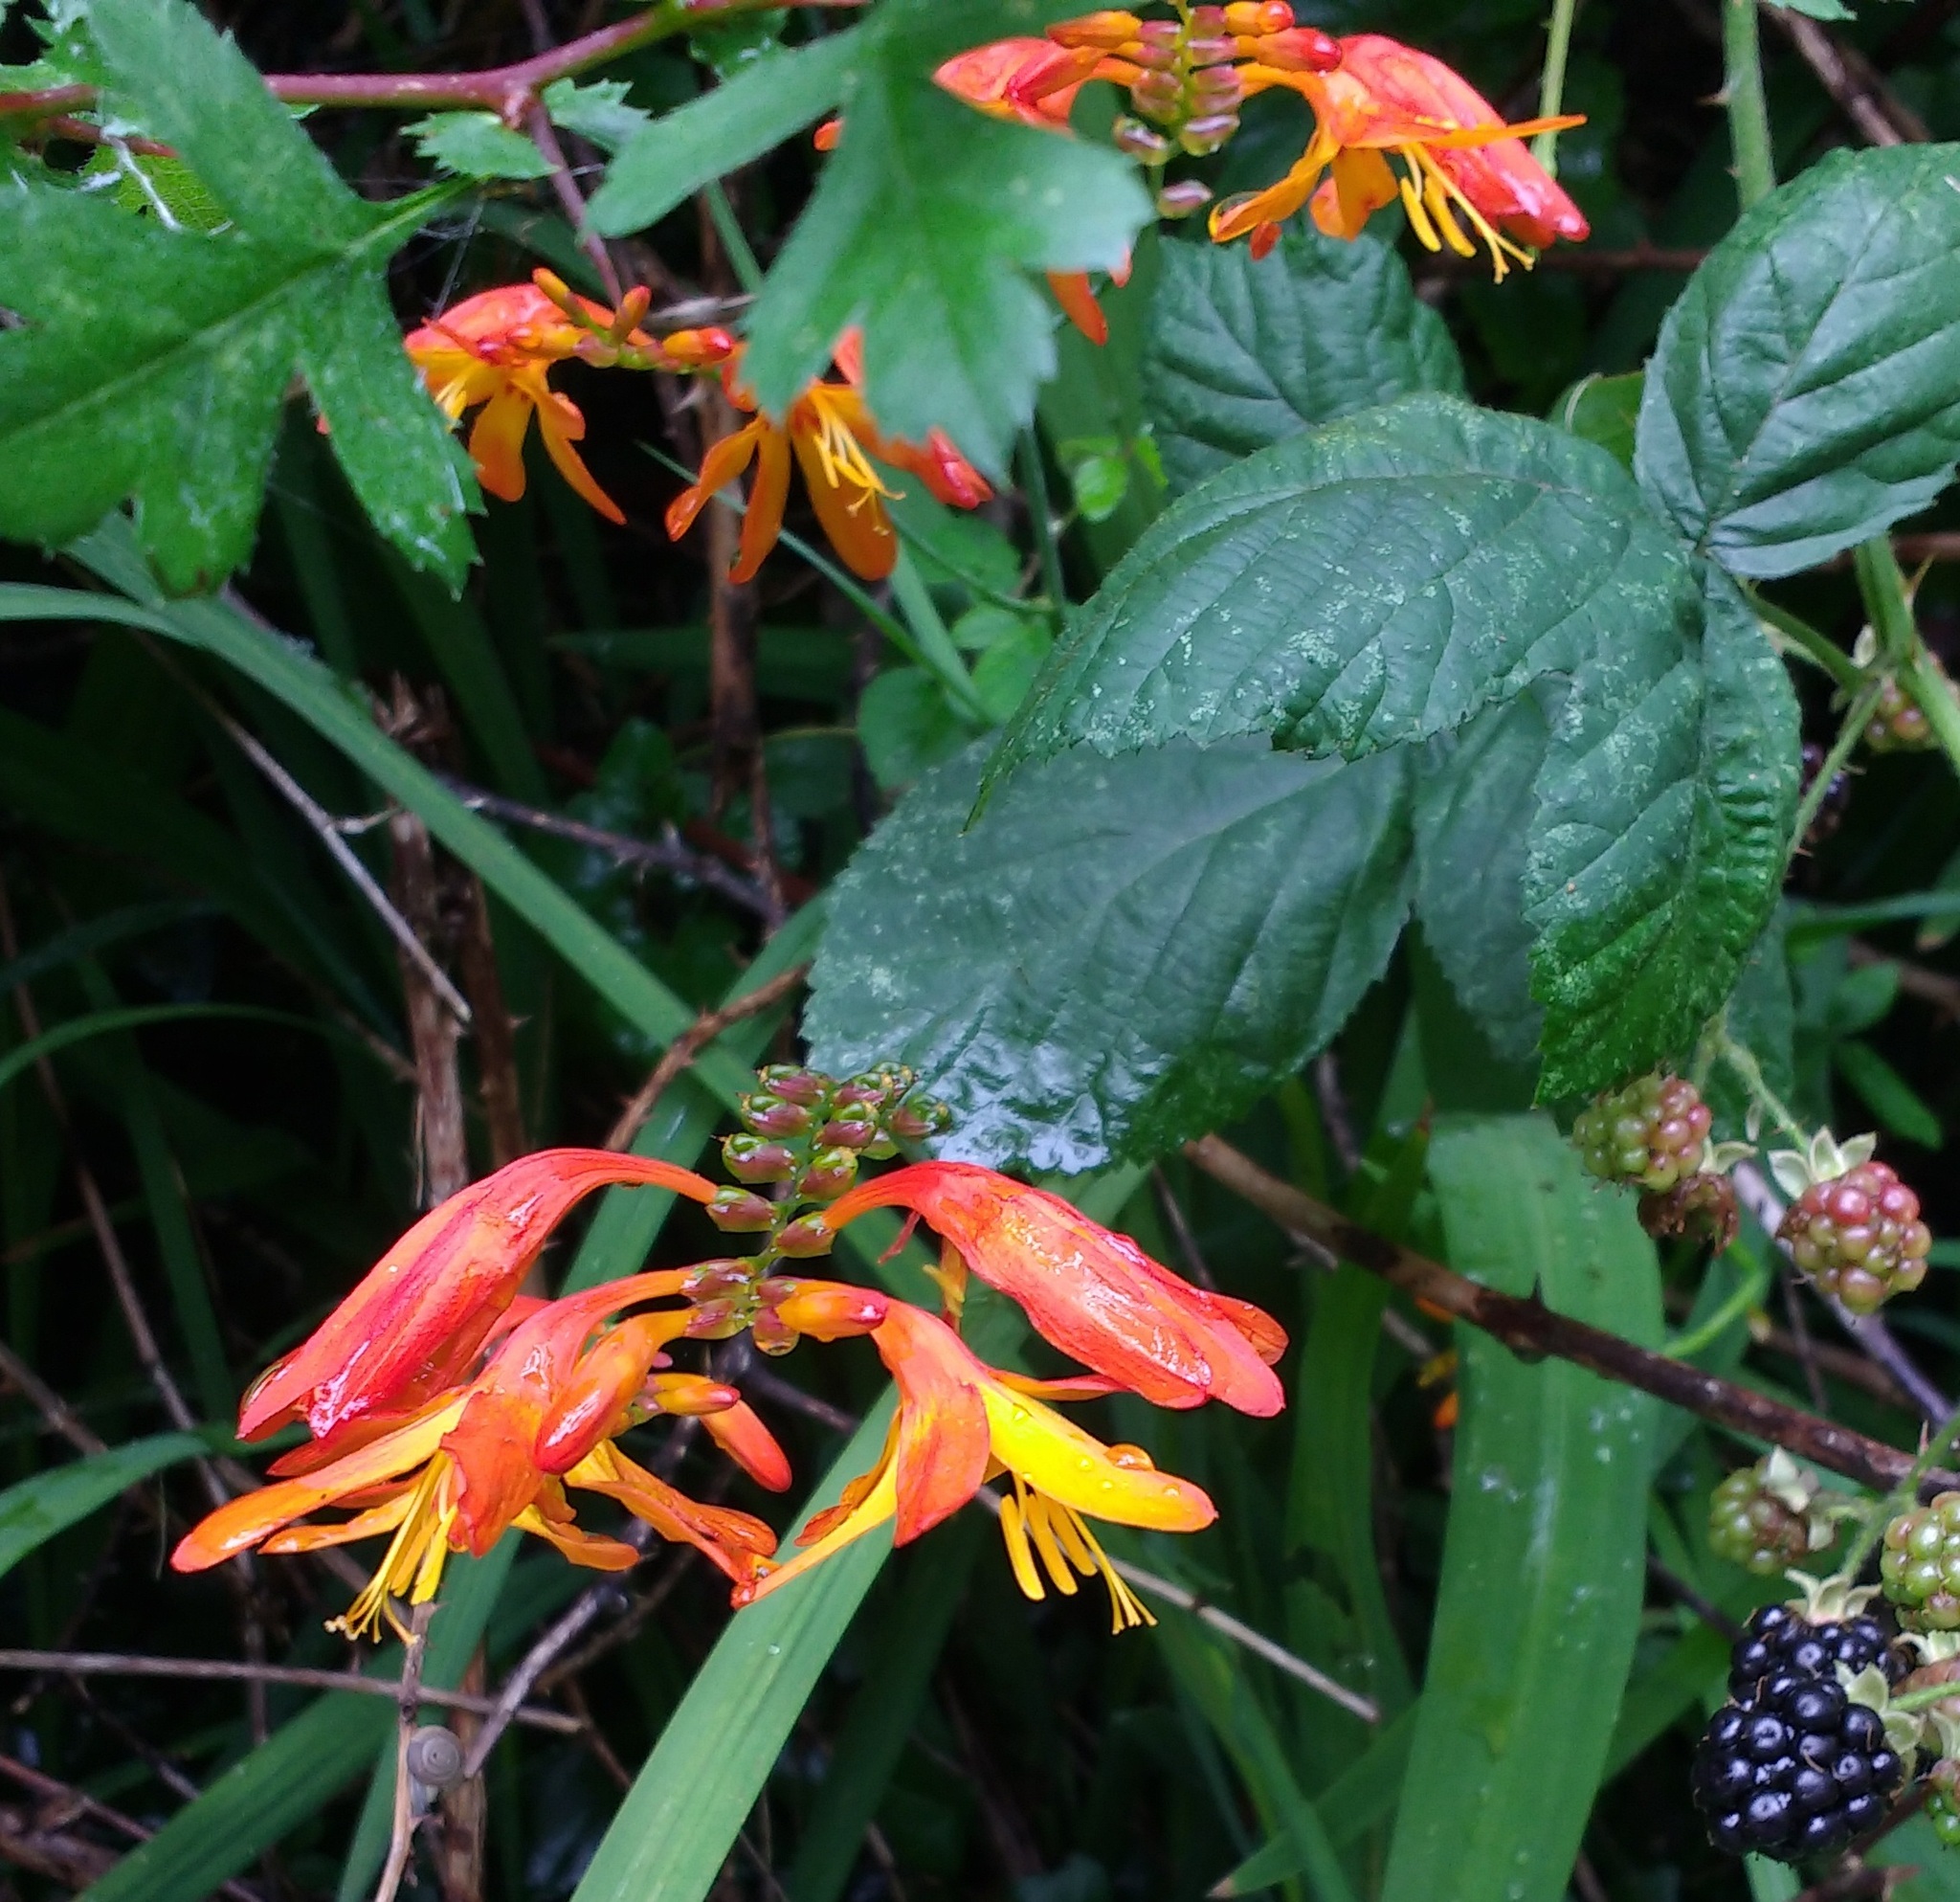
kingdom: Plantae
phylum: Tracheophyta
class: Liliopsida
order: Asparagales
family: Iridaceae
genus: Crocosmia
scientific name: Crocosmia crocosmiiflora
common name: Montbretia
